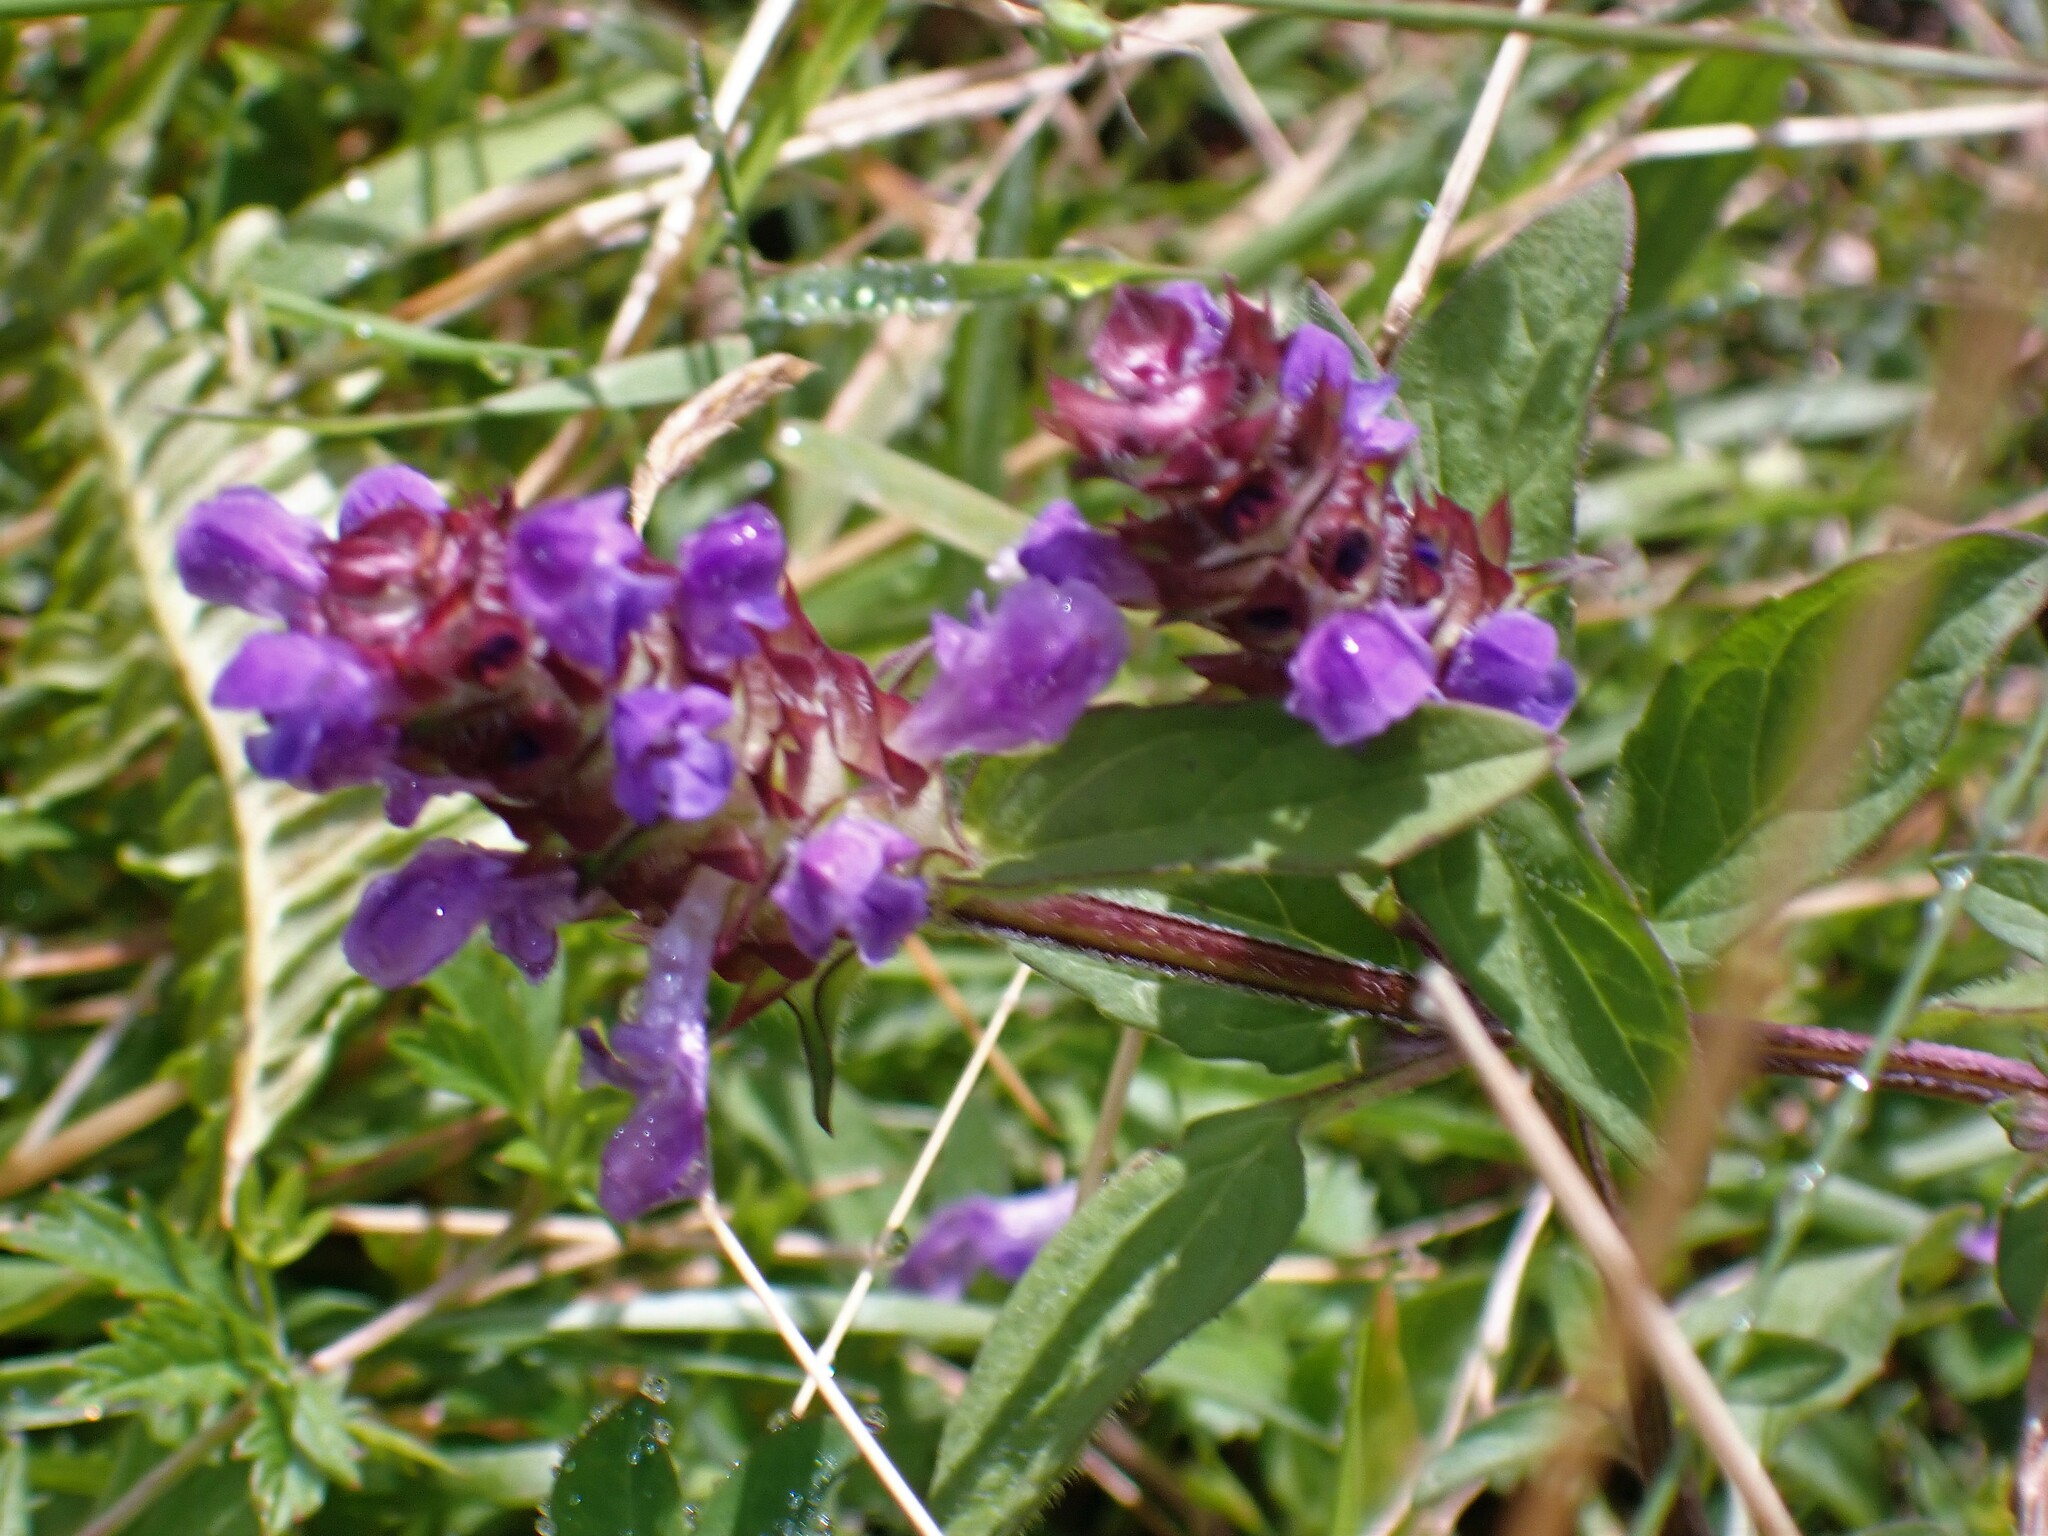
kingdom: Plantae
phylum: Tracheophyta
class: Magnoliopsida
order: Lamiales
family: Lamiaceae
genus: Prunella
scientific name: Prunella vulgaris
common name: Heal-all
